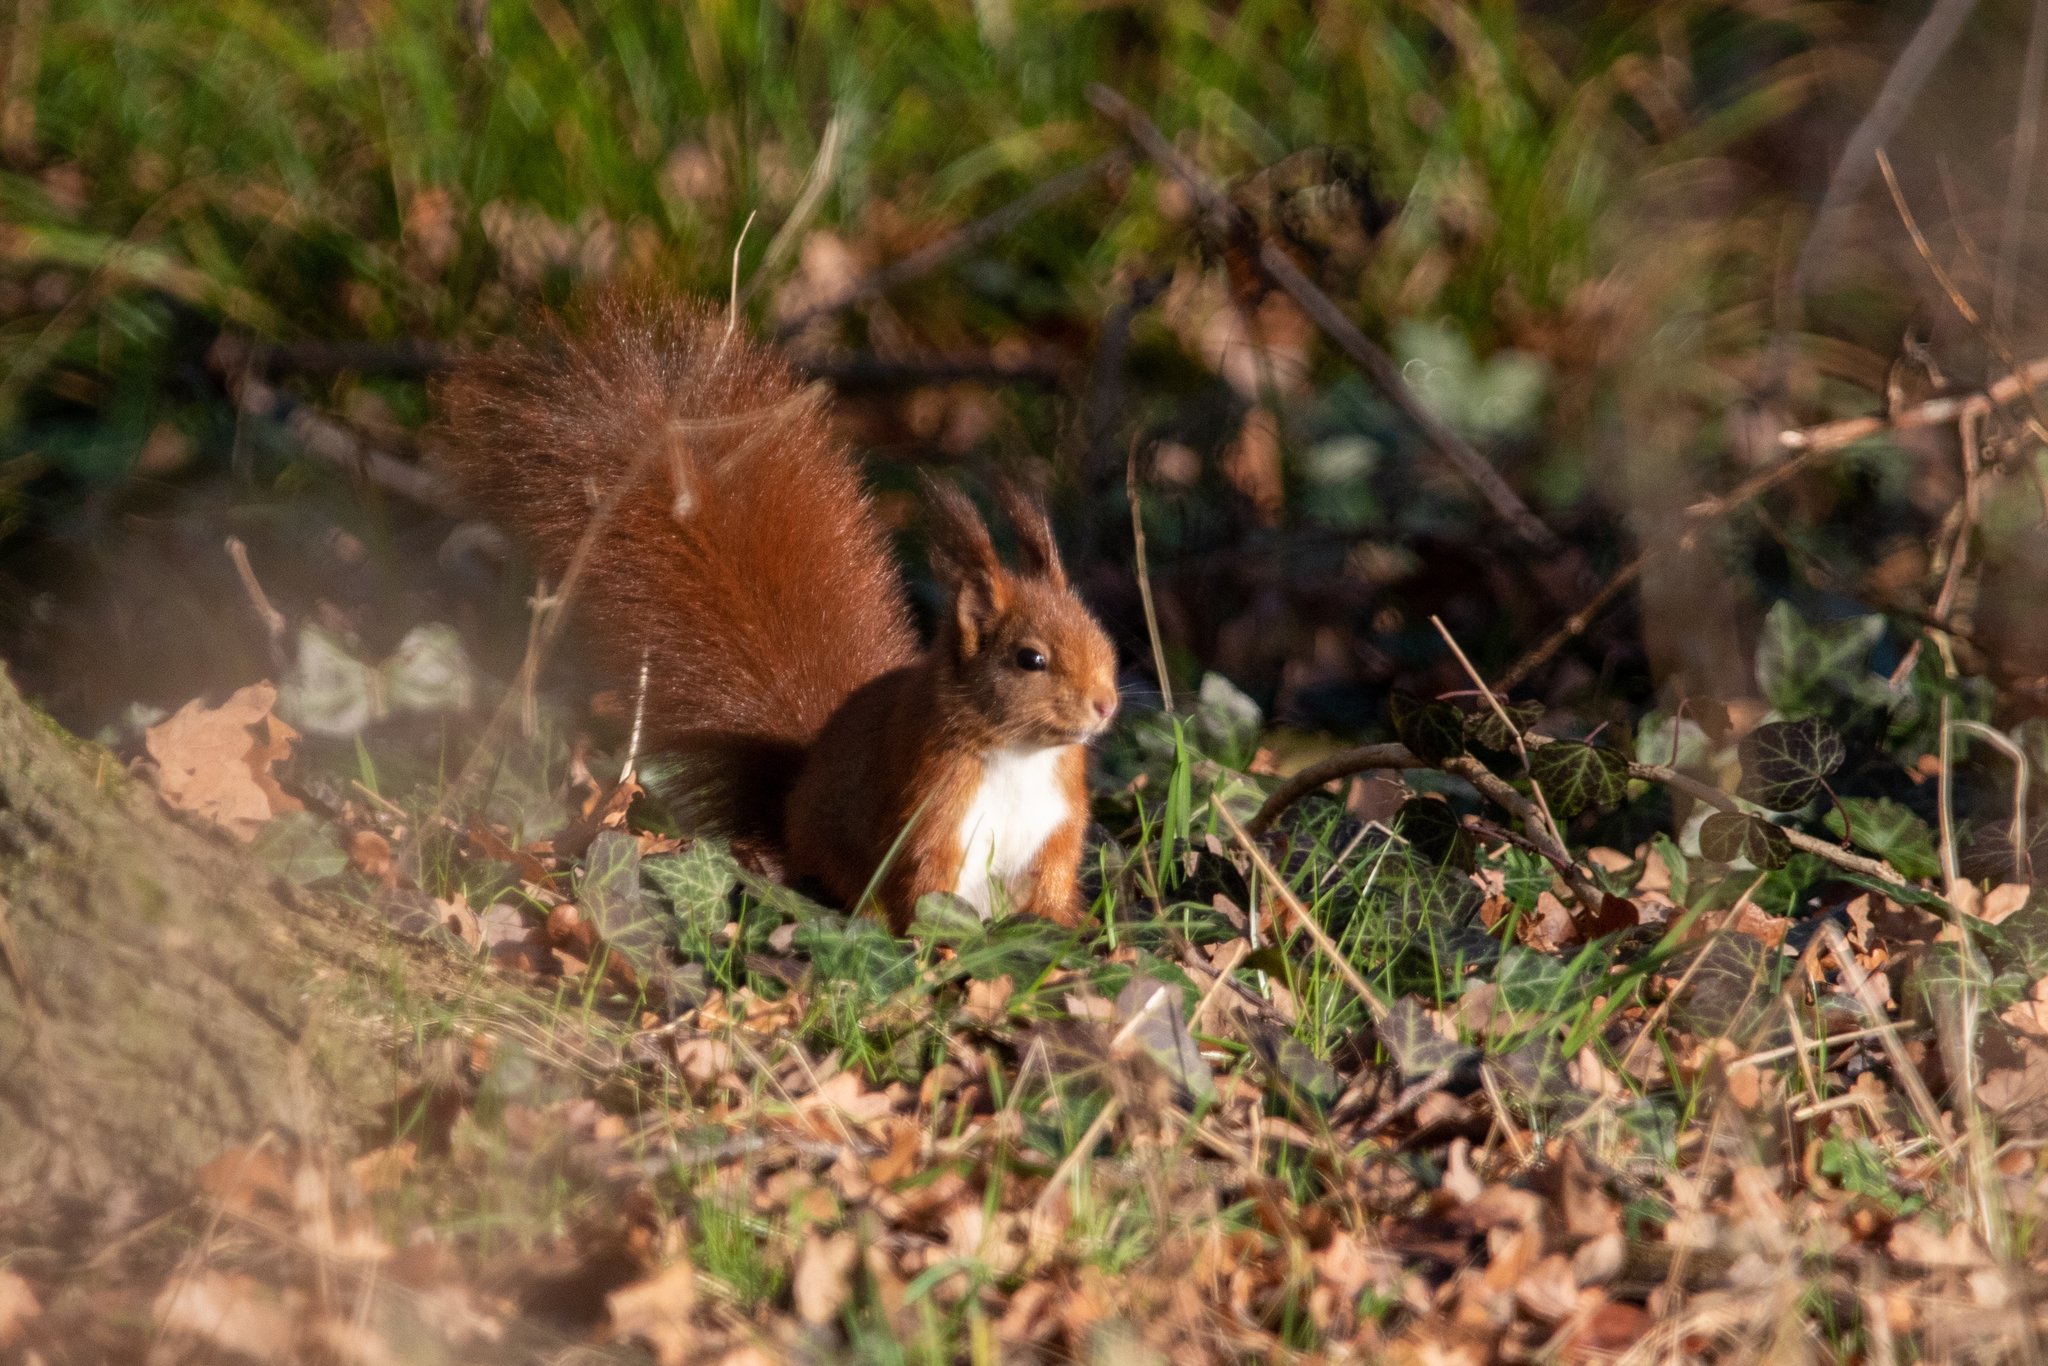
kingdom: Animalia
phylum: Chordata
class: Mammalia
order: Rodentia
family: Sciuridae
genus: Sciurus
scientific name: Sciurus vulgaris
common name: Eurasian red squirrel
